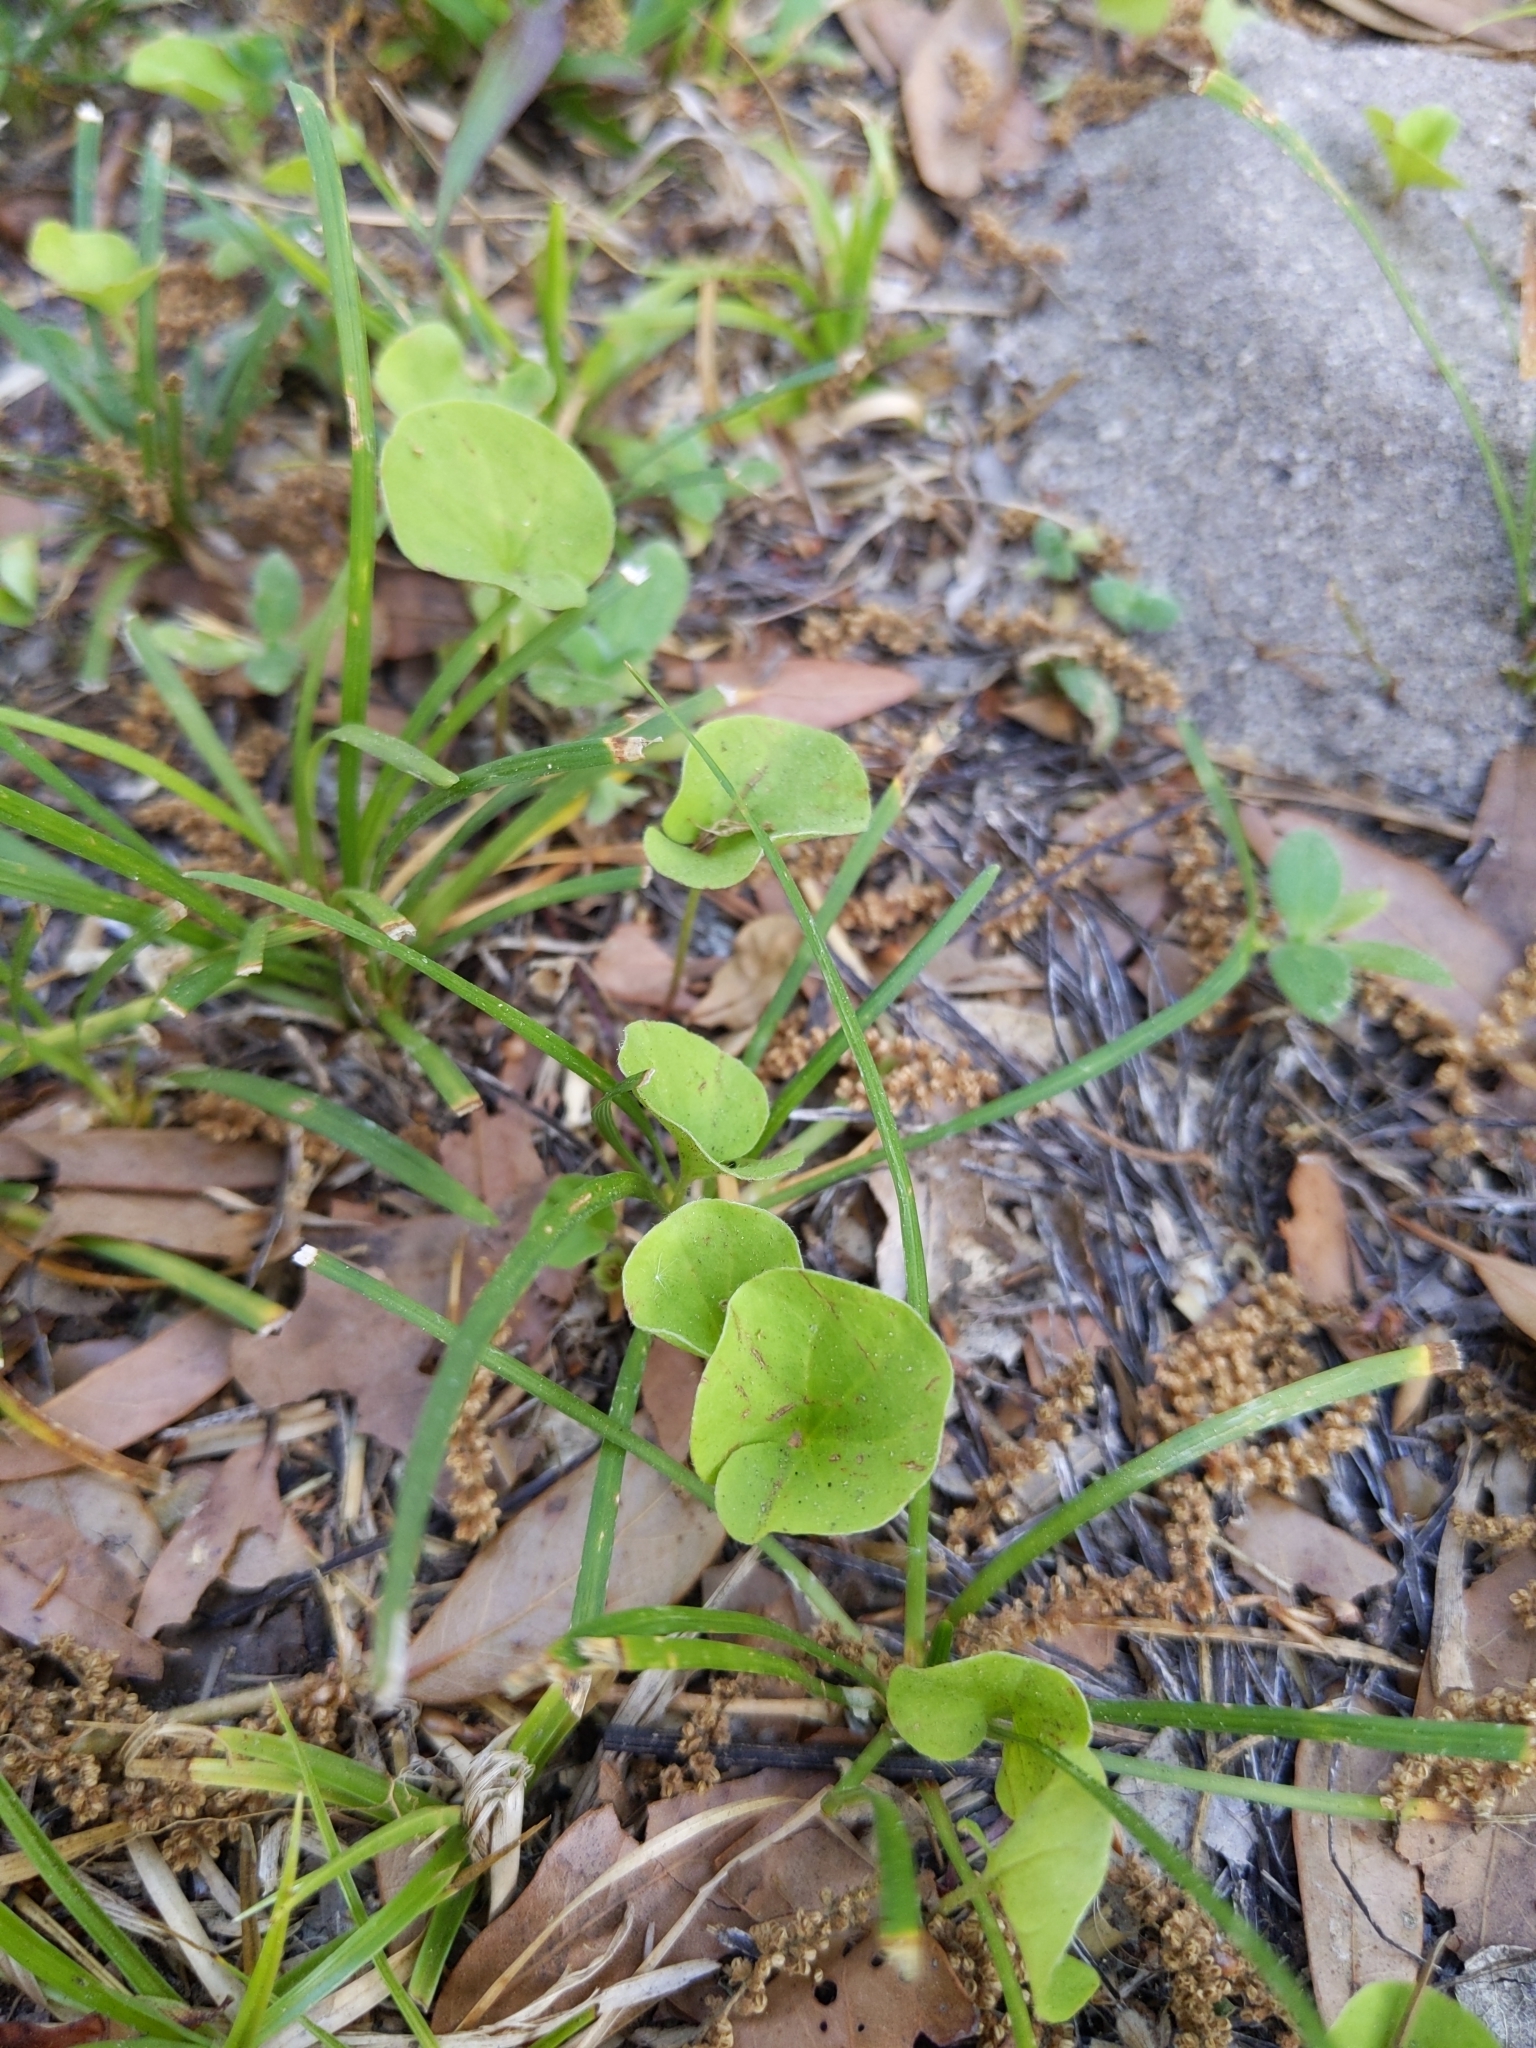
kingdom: Plantae
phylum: Tracheophyta
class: Magnoliopsida
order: Solanales
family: Convolvulaceae
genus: Dichondra
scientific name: Dichondra carolinensis
